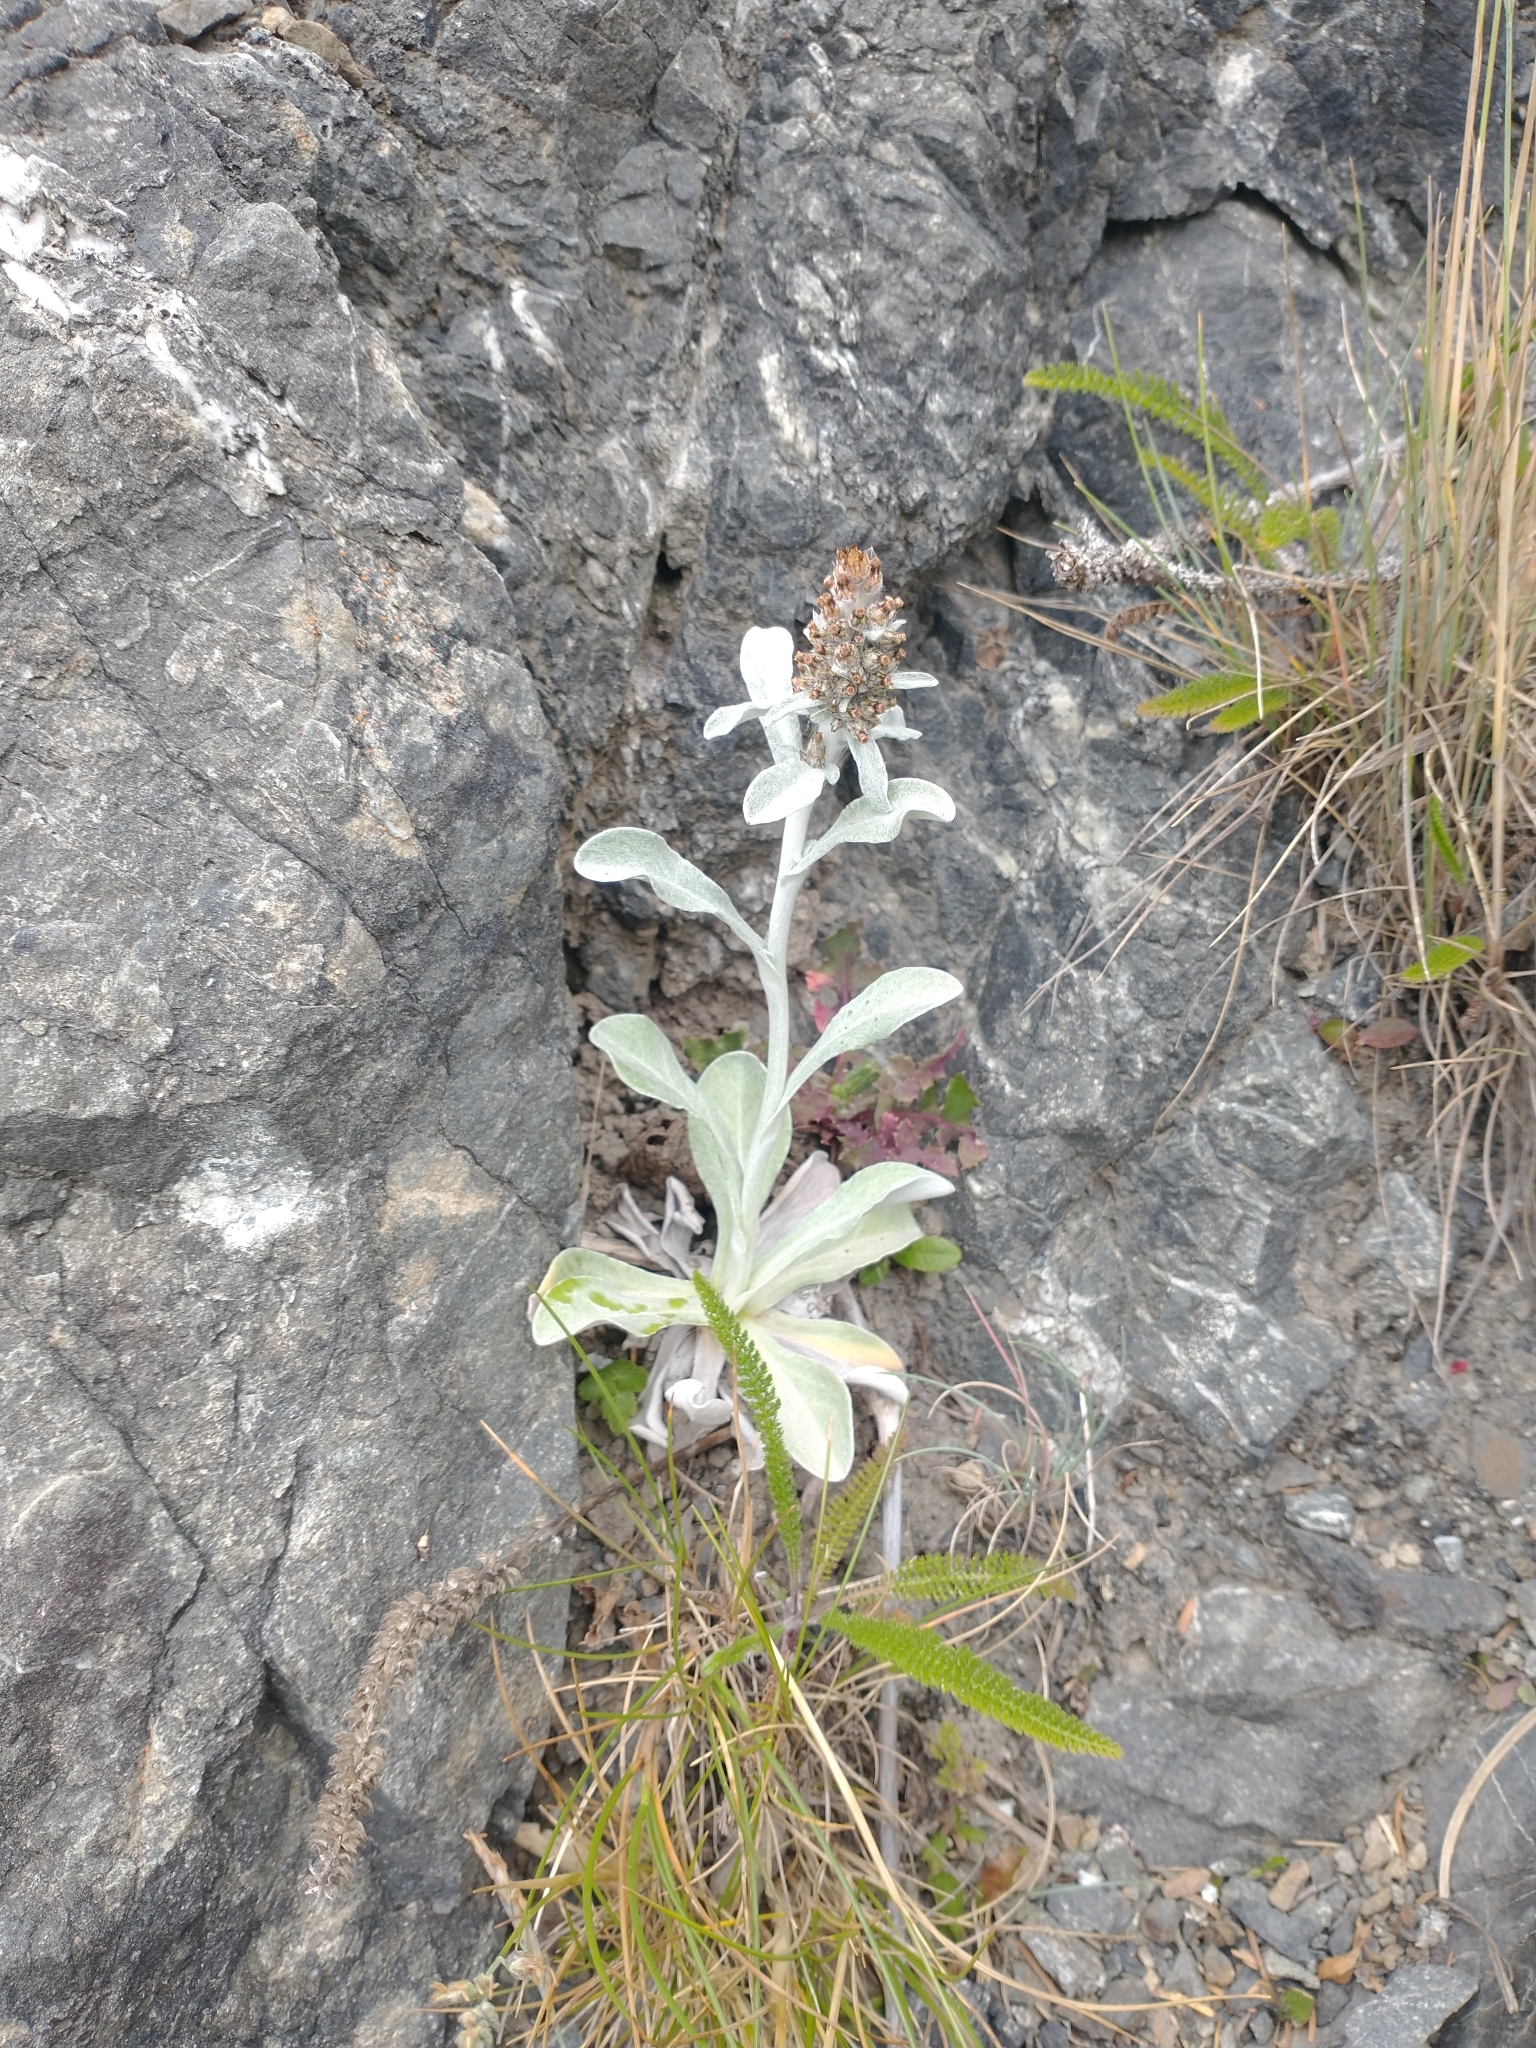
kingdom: Plantae
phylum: Tracheophyta
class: Magnoliopsida
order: Asterales
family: Asteraceae
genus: Gamochaeta
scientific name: Gamochaeta ustulata
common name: Pacific cudweed
